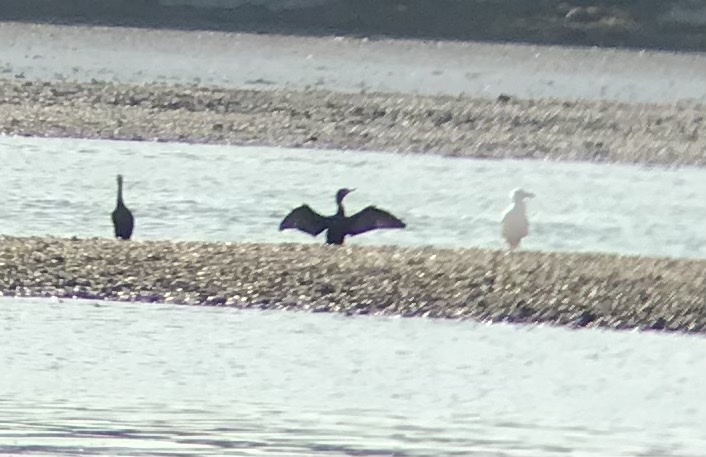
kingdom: Animalia
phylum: Chordata
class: Aves
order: Suliformes
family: Phalacrocoracidae
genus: Phalacrocorax
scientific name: Phalacrocorax auritus
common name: Double-crested cormorant
